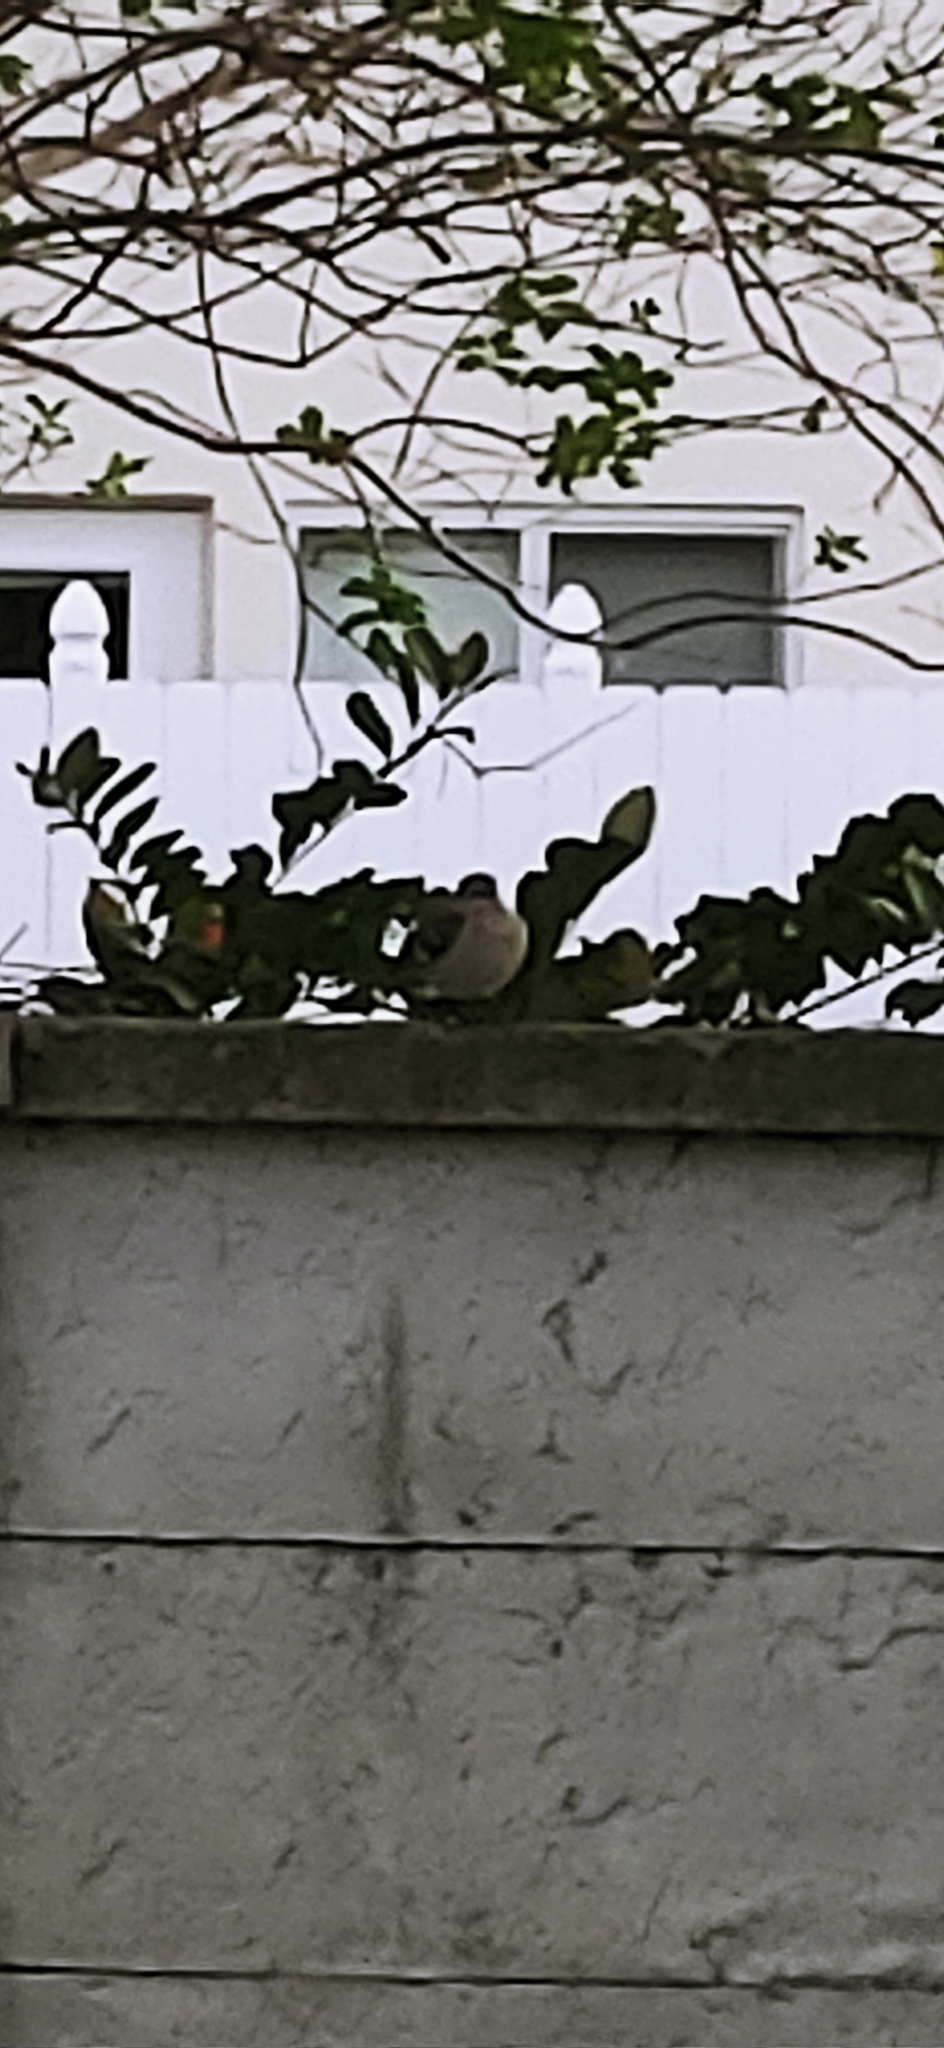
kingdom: Animalia
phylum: Chordata
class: Aves
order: Passeriformes
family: Mimidae
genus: Mimus
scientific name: Mimus polyglottos
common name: Northern mockingbird
